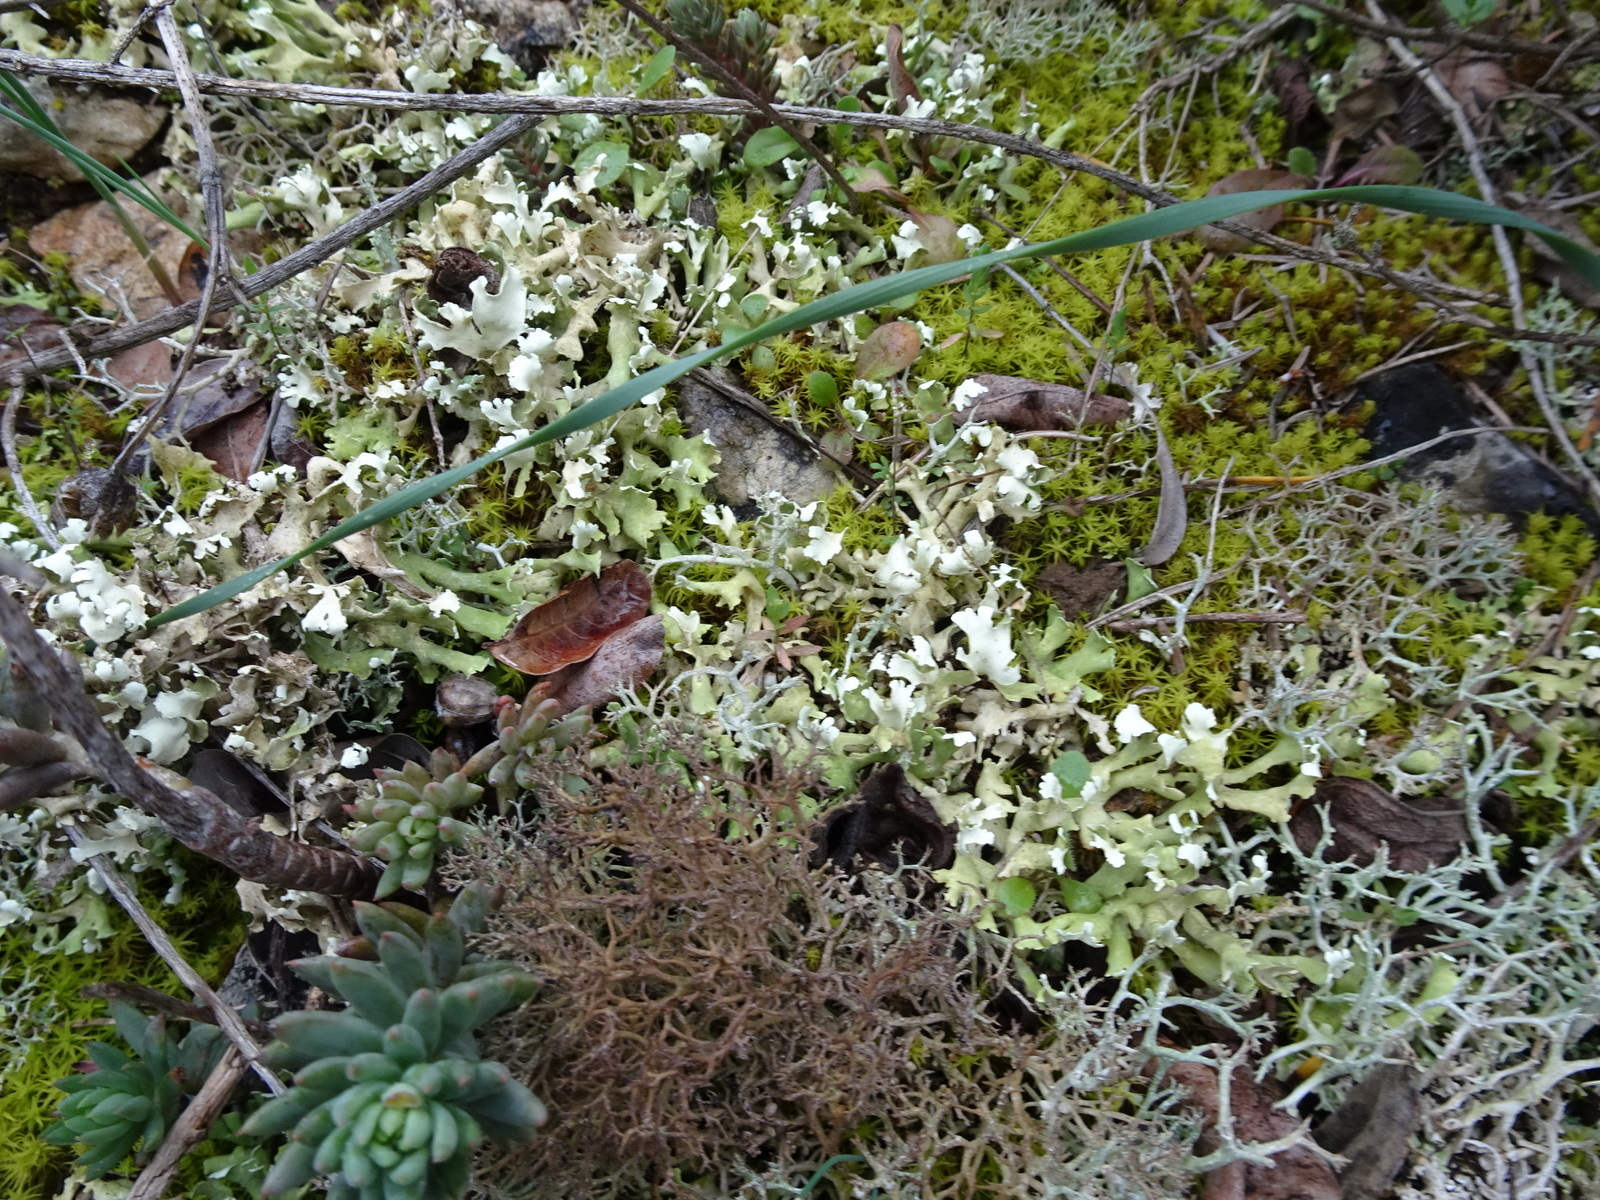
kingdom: Fungi
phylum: Ascomycota
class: Lecanoromycetes
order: Lecanorales
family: Cladoniaceae
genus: Cladonia
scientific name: Cladonia foliacea
